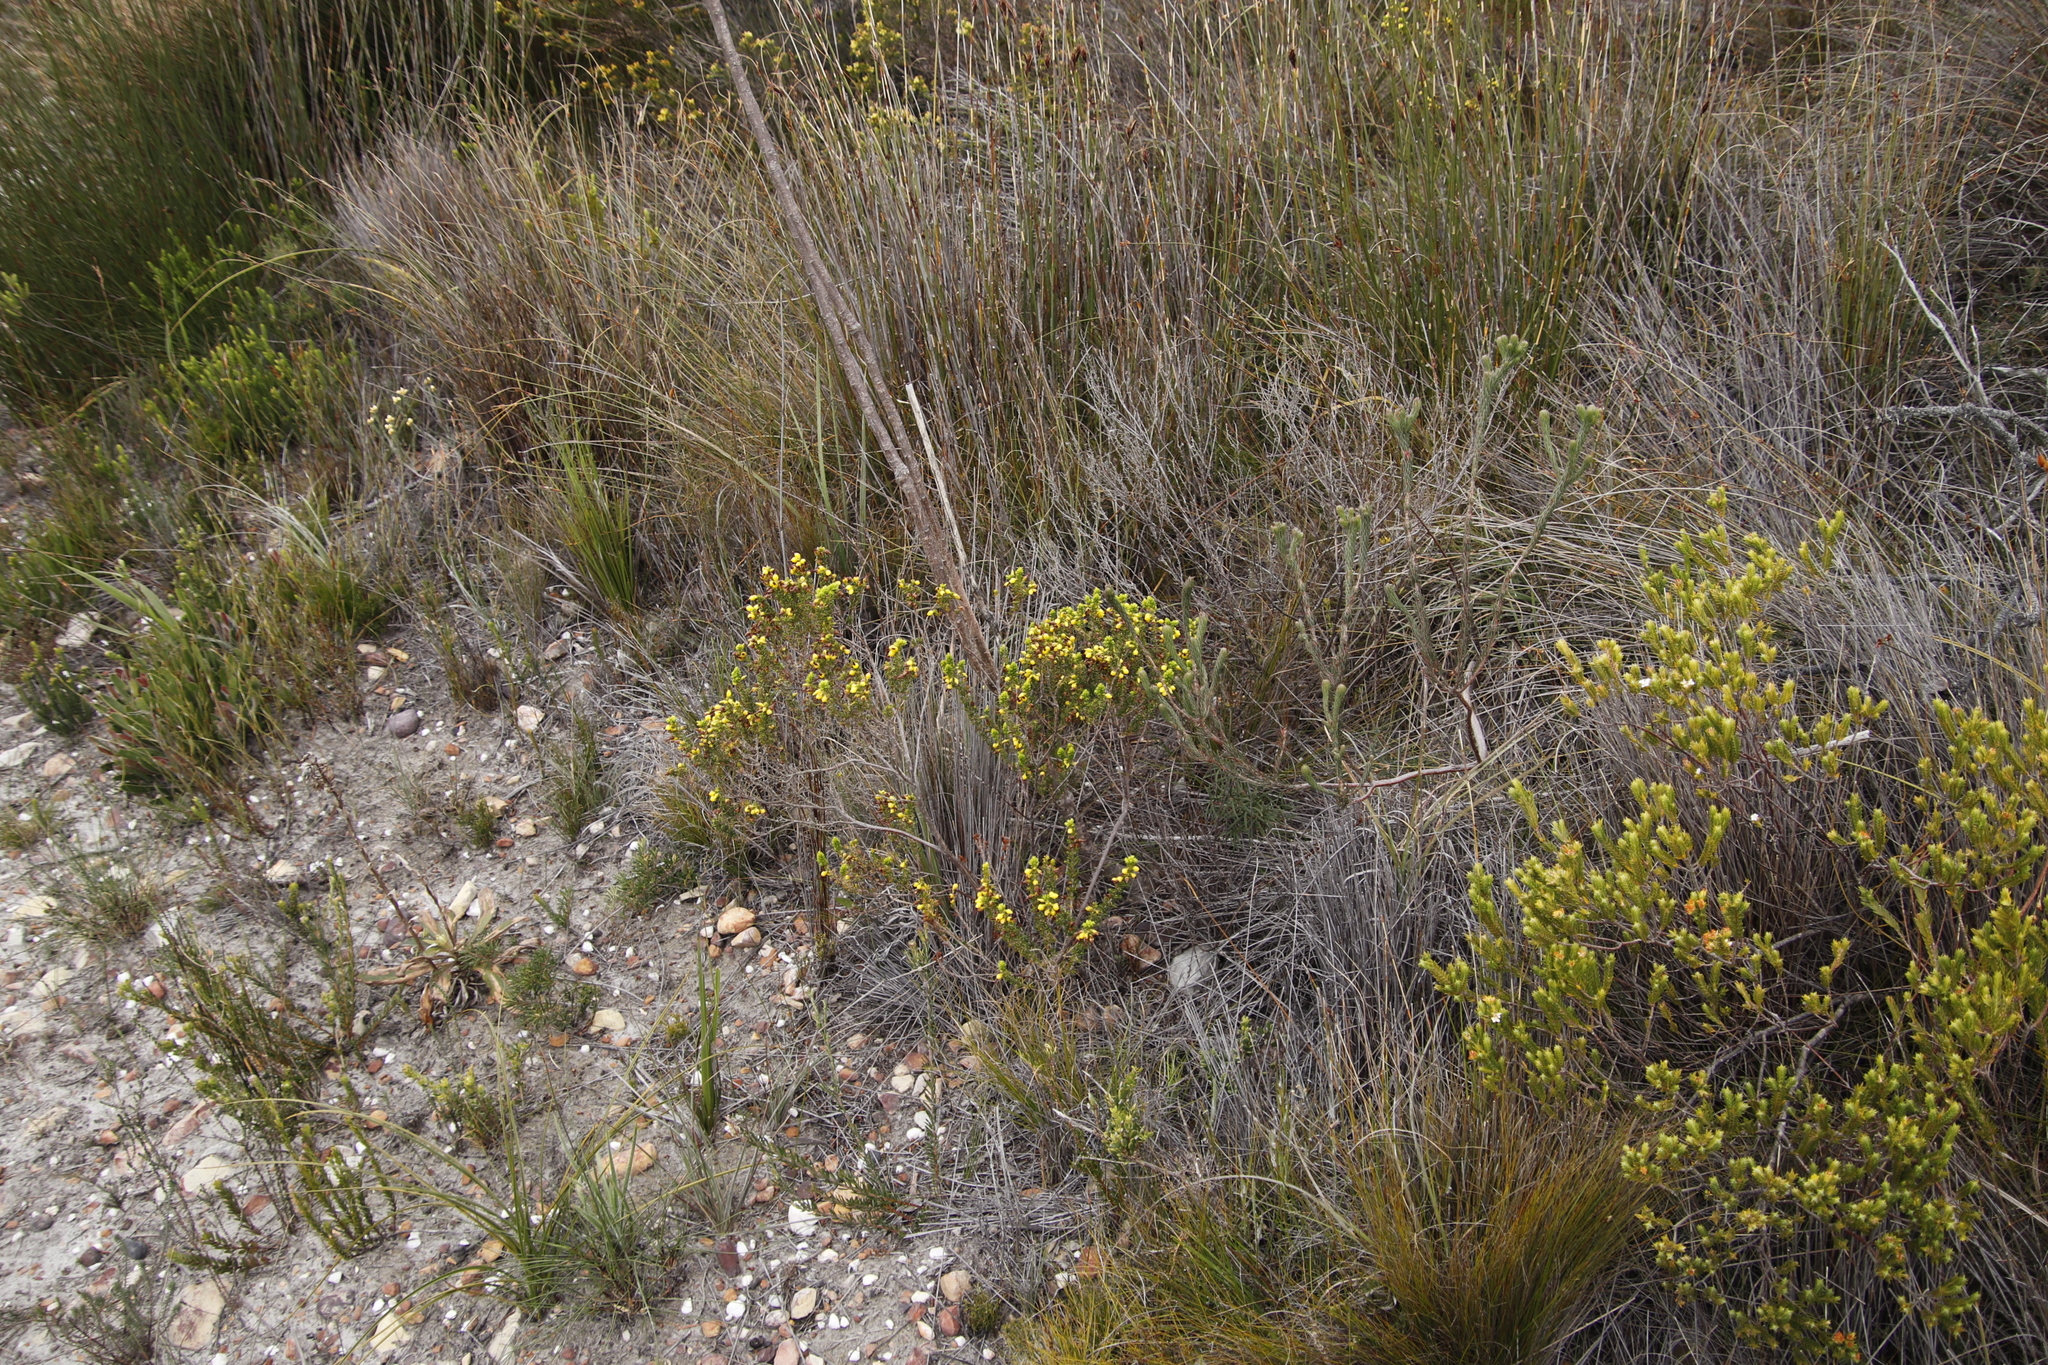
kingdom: Plantae
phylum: Tracheophyta
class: Magnoliopsida
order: Ericales
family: Ericaceae
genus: Erica
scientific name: Erica melastoma
